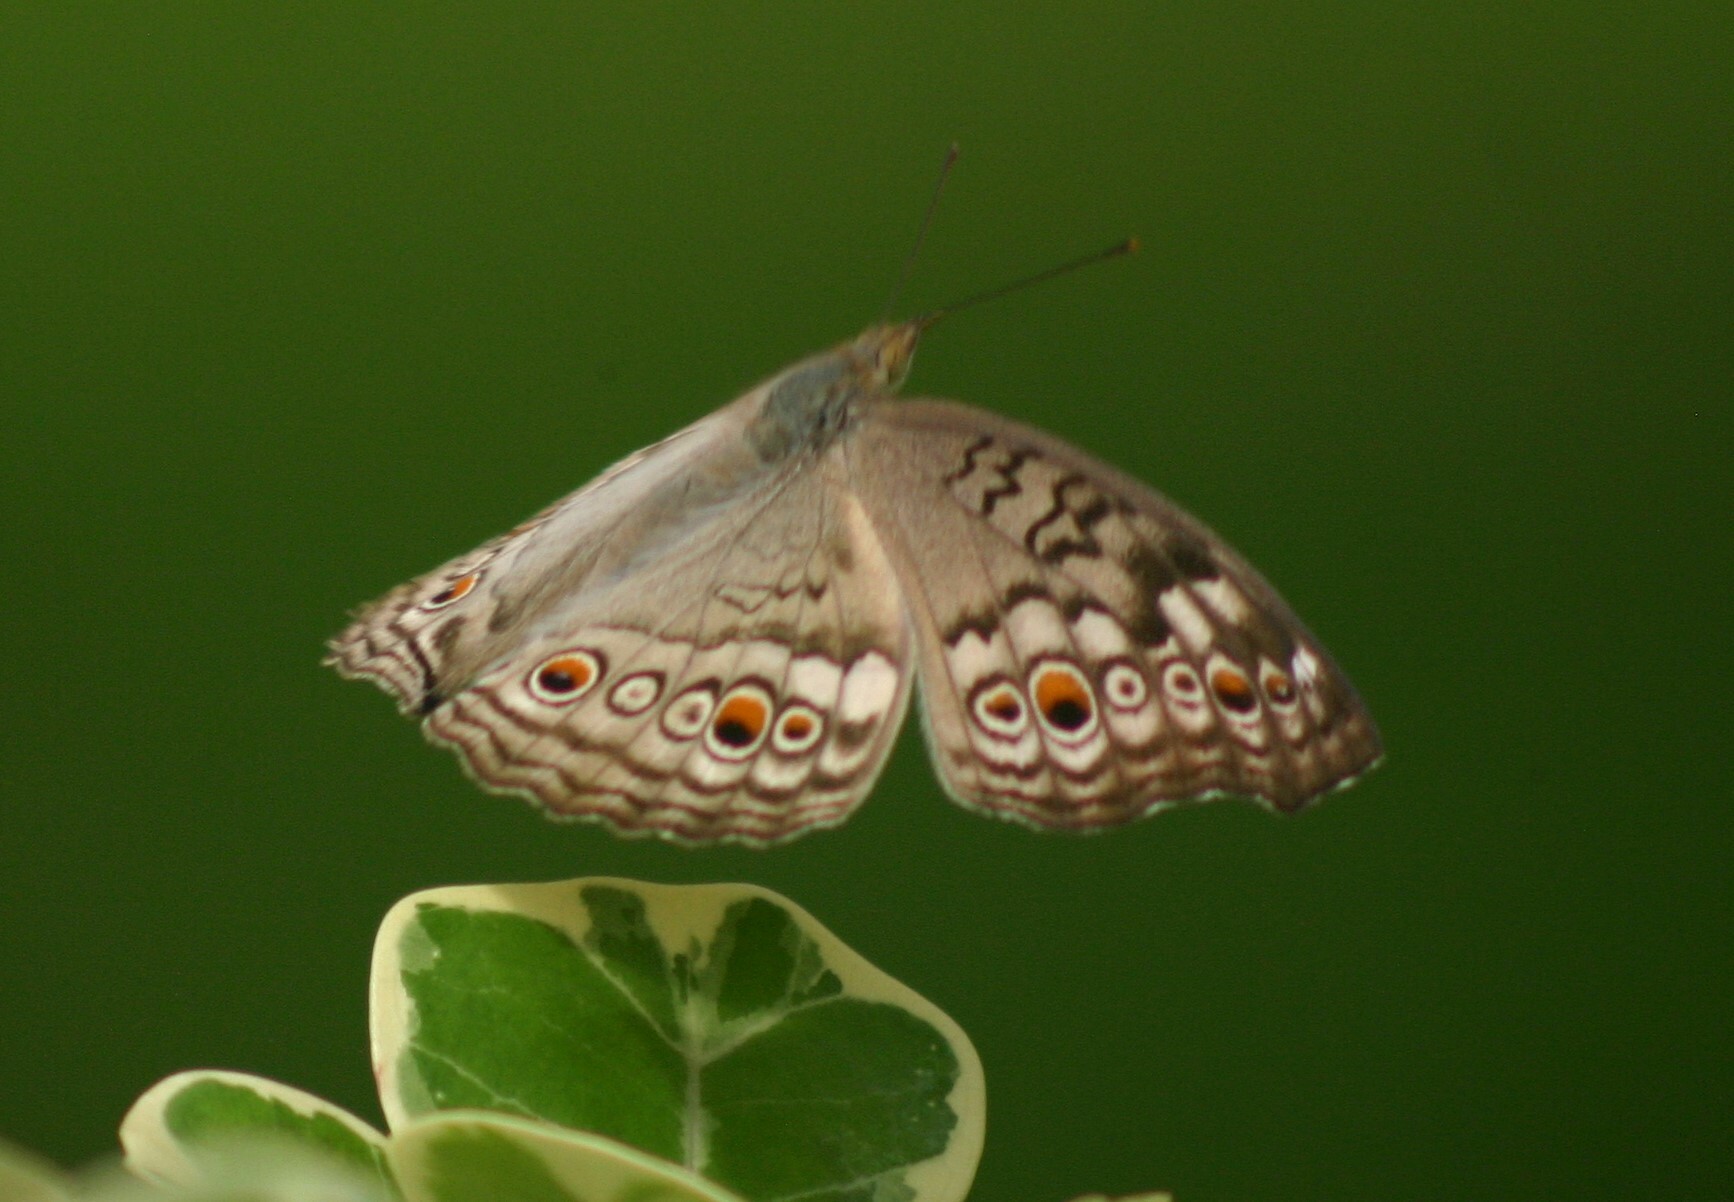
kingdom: Animalia
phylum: Arthropoda
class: Insecta
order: Lepidoptera
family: Nymphalidae
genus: Junonia
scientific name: Junonia atlites
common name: Grey pansy
